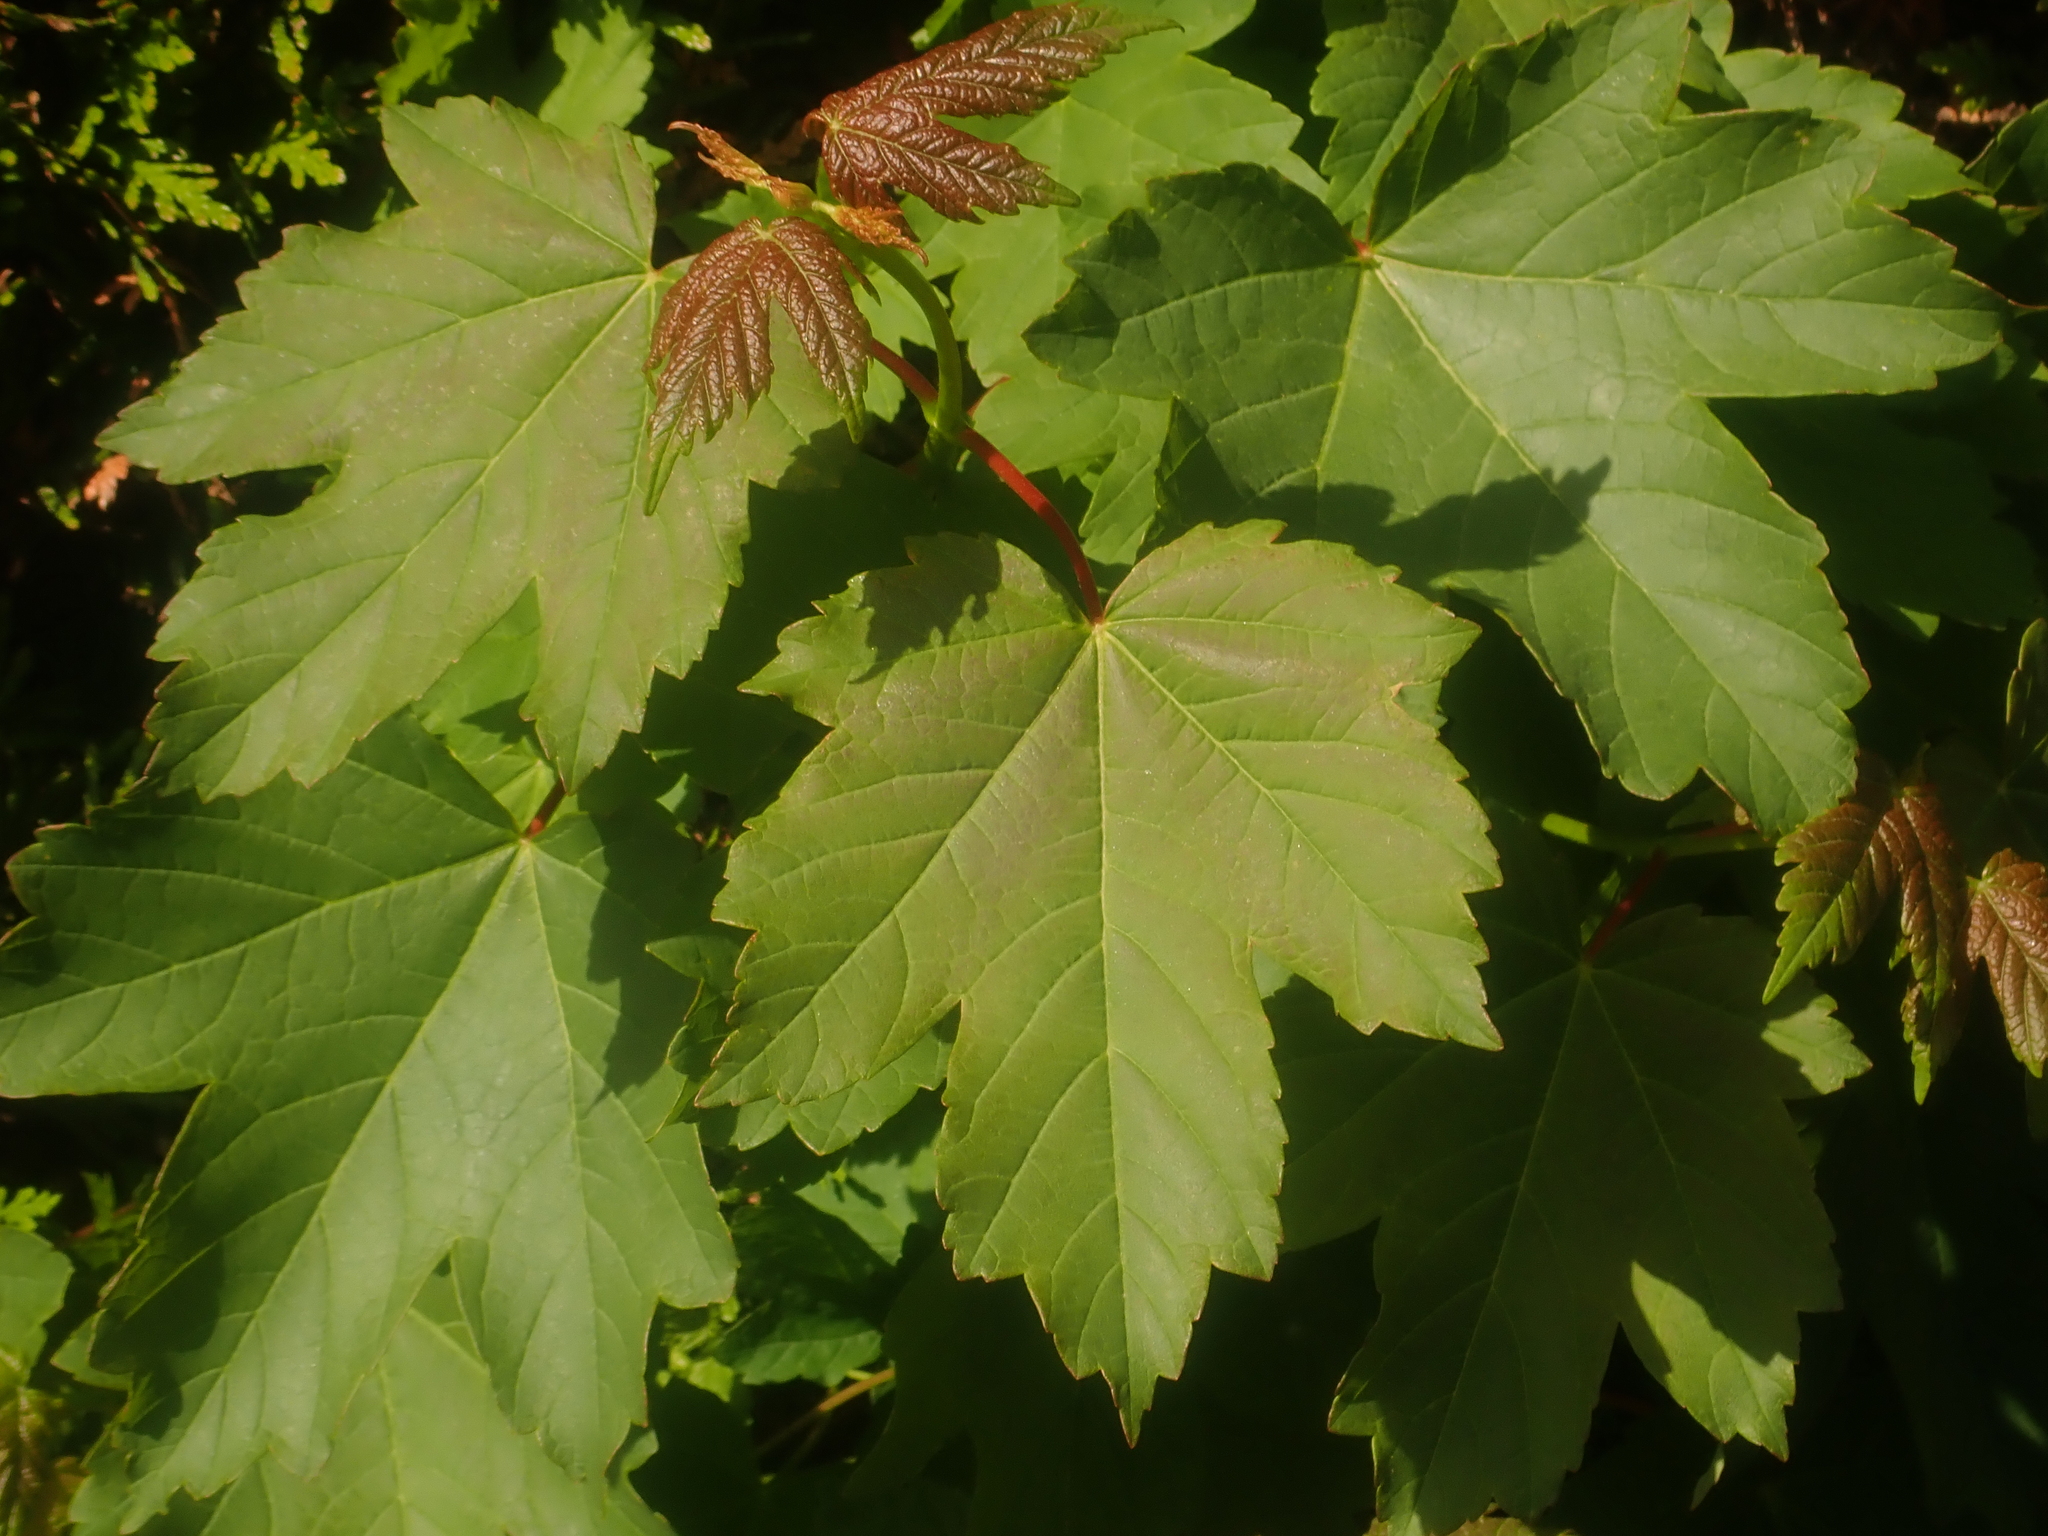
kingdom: Plantae
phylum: Tracheophyta
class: Magnoliopsida
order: Sapindales
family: Sapindaceae
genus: Acer
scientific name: Acer pseudoplatanus
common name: Sycamore
